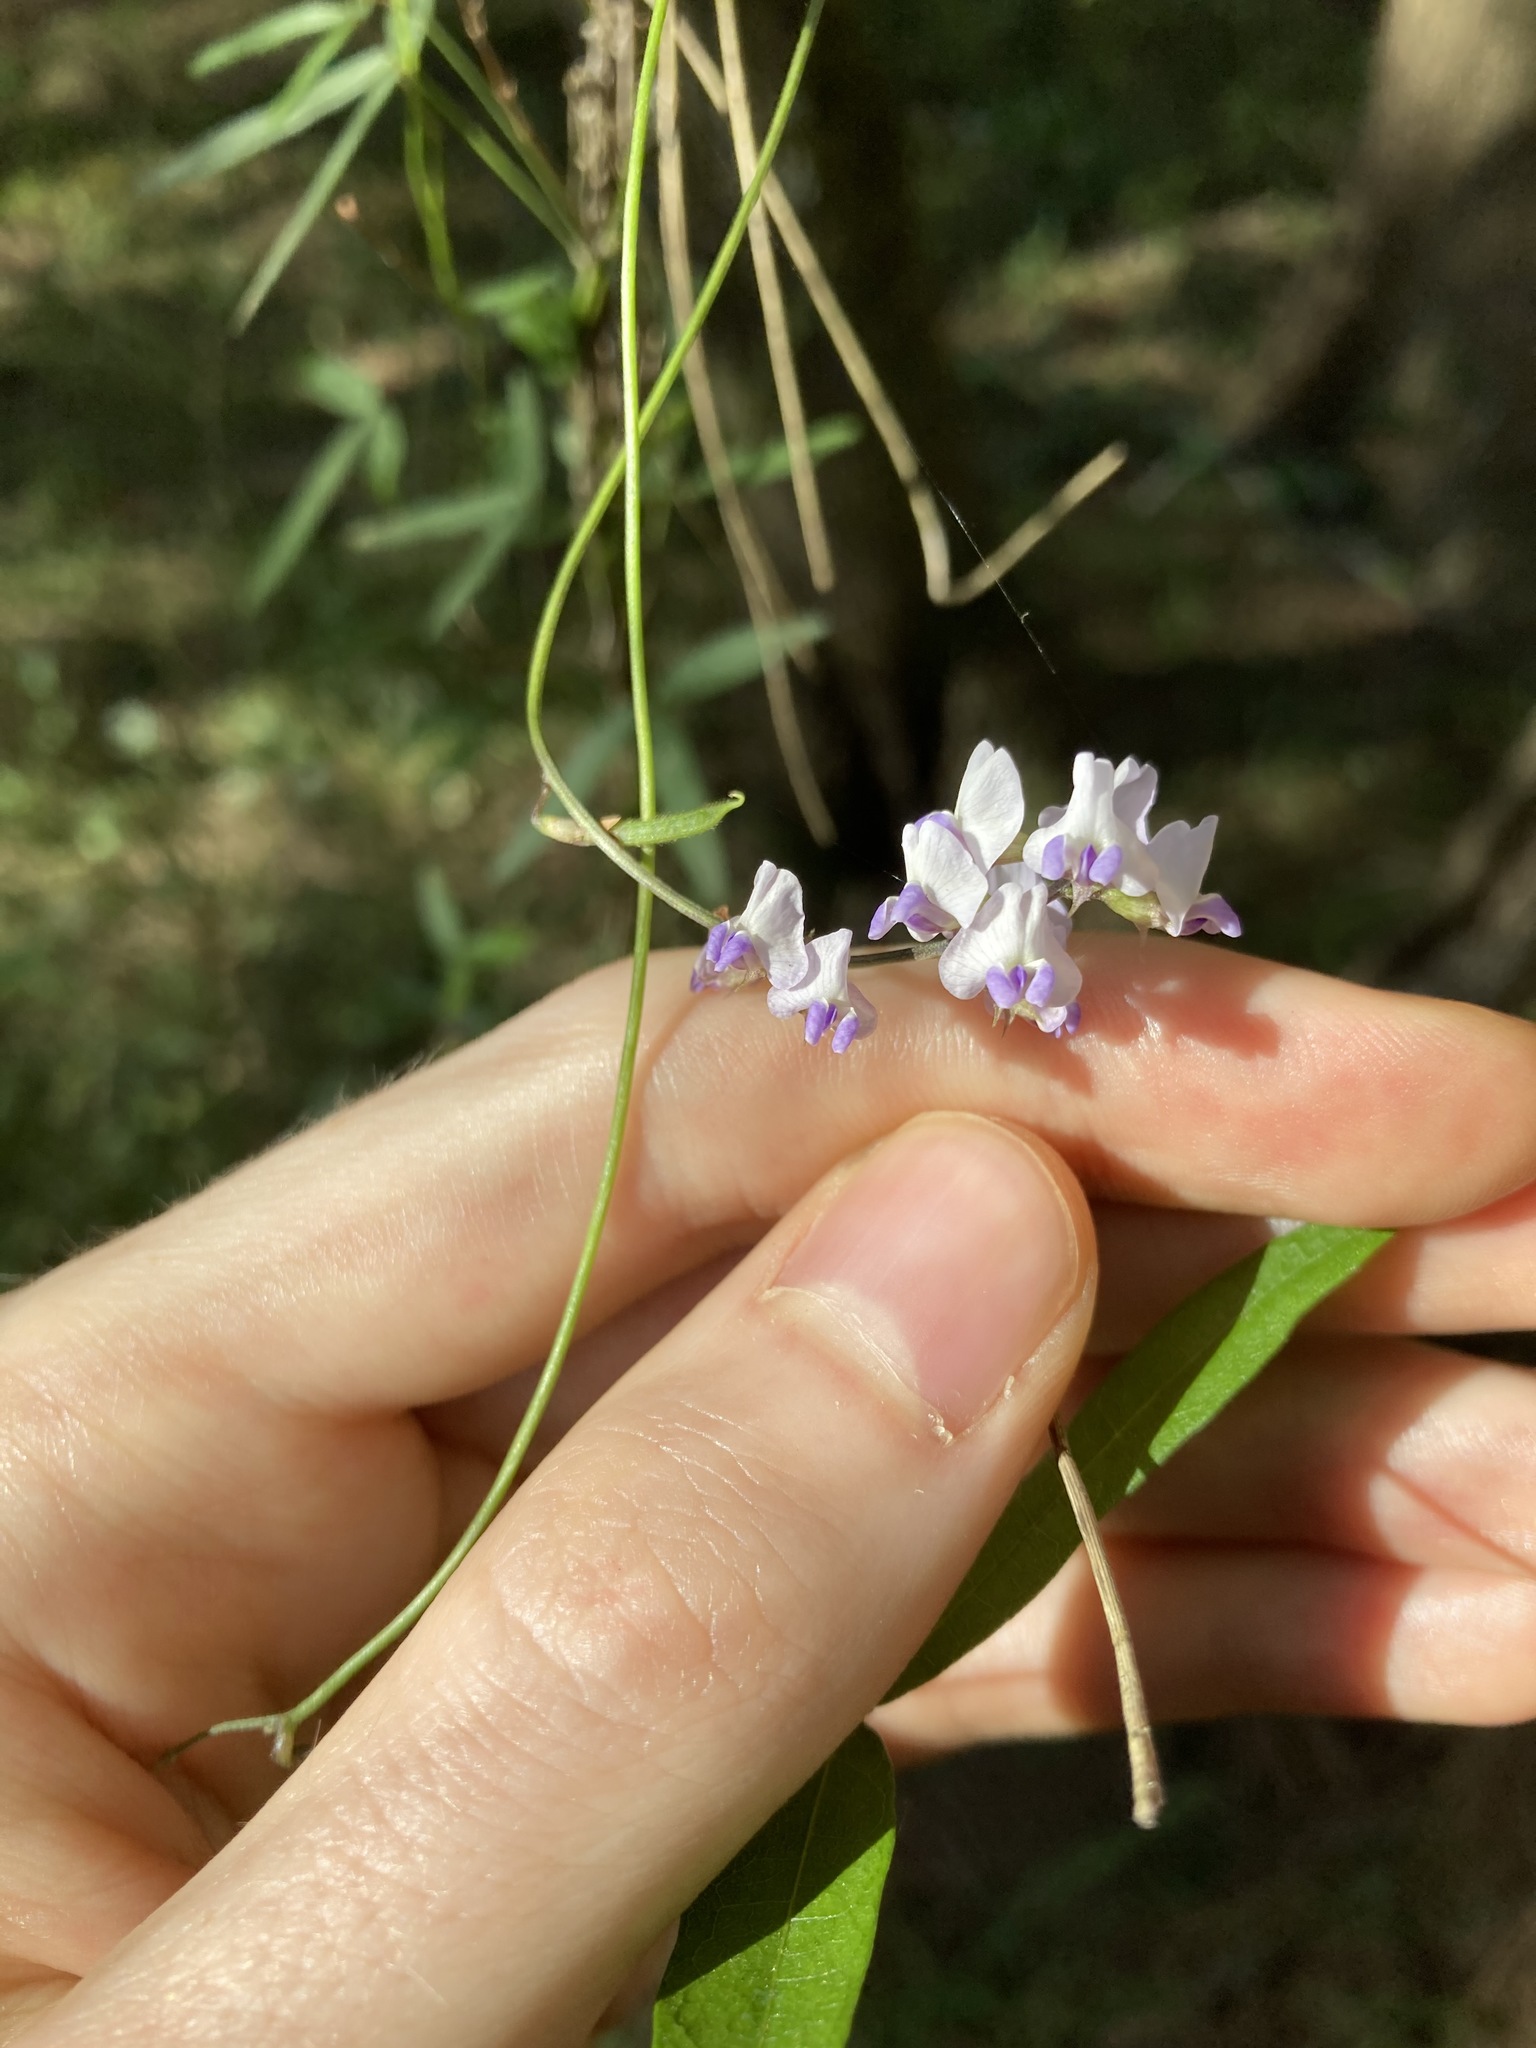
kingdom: Plantae
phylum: Tracheophyta
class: Magnoliopsida
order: Fabales
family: Fabaceae
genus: Glycine
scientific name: Glycine clandestina
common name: Twining glycine
